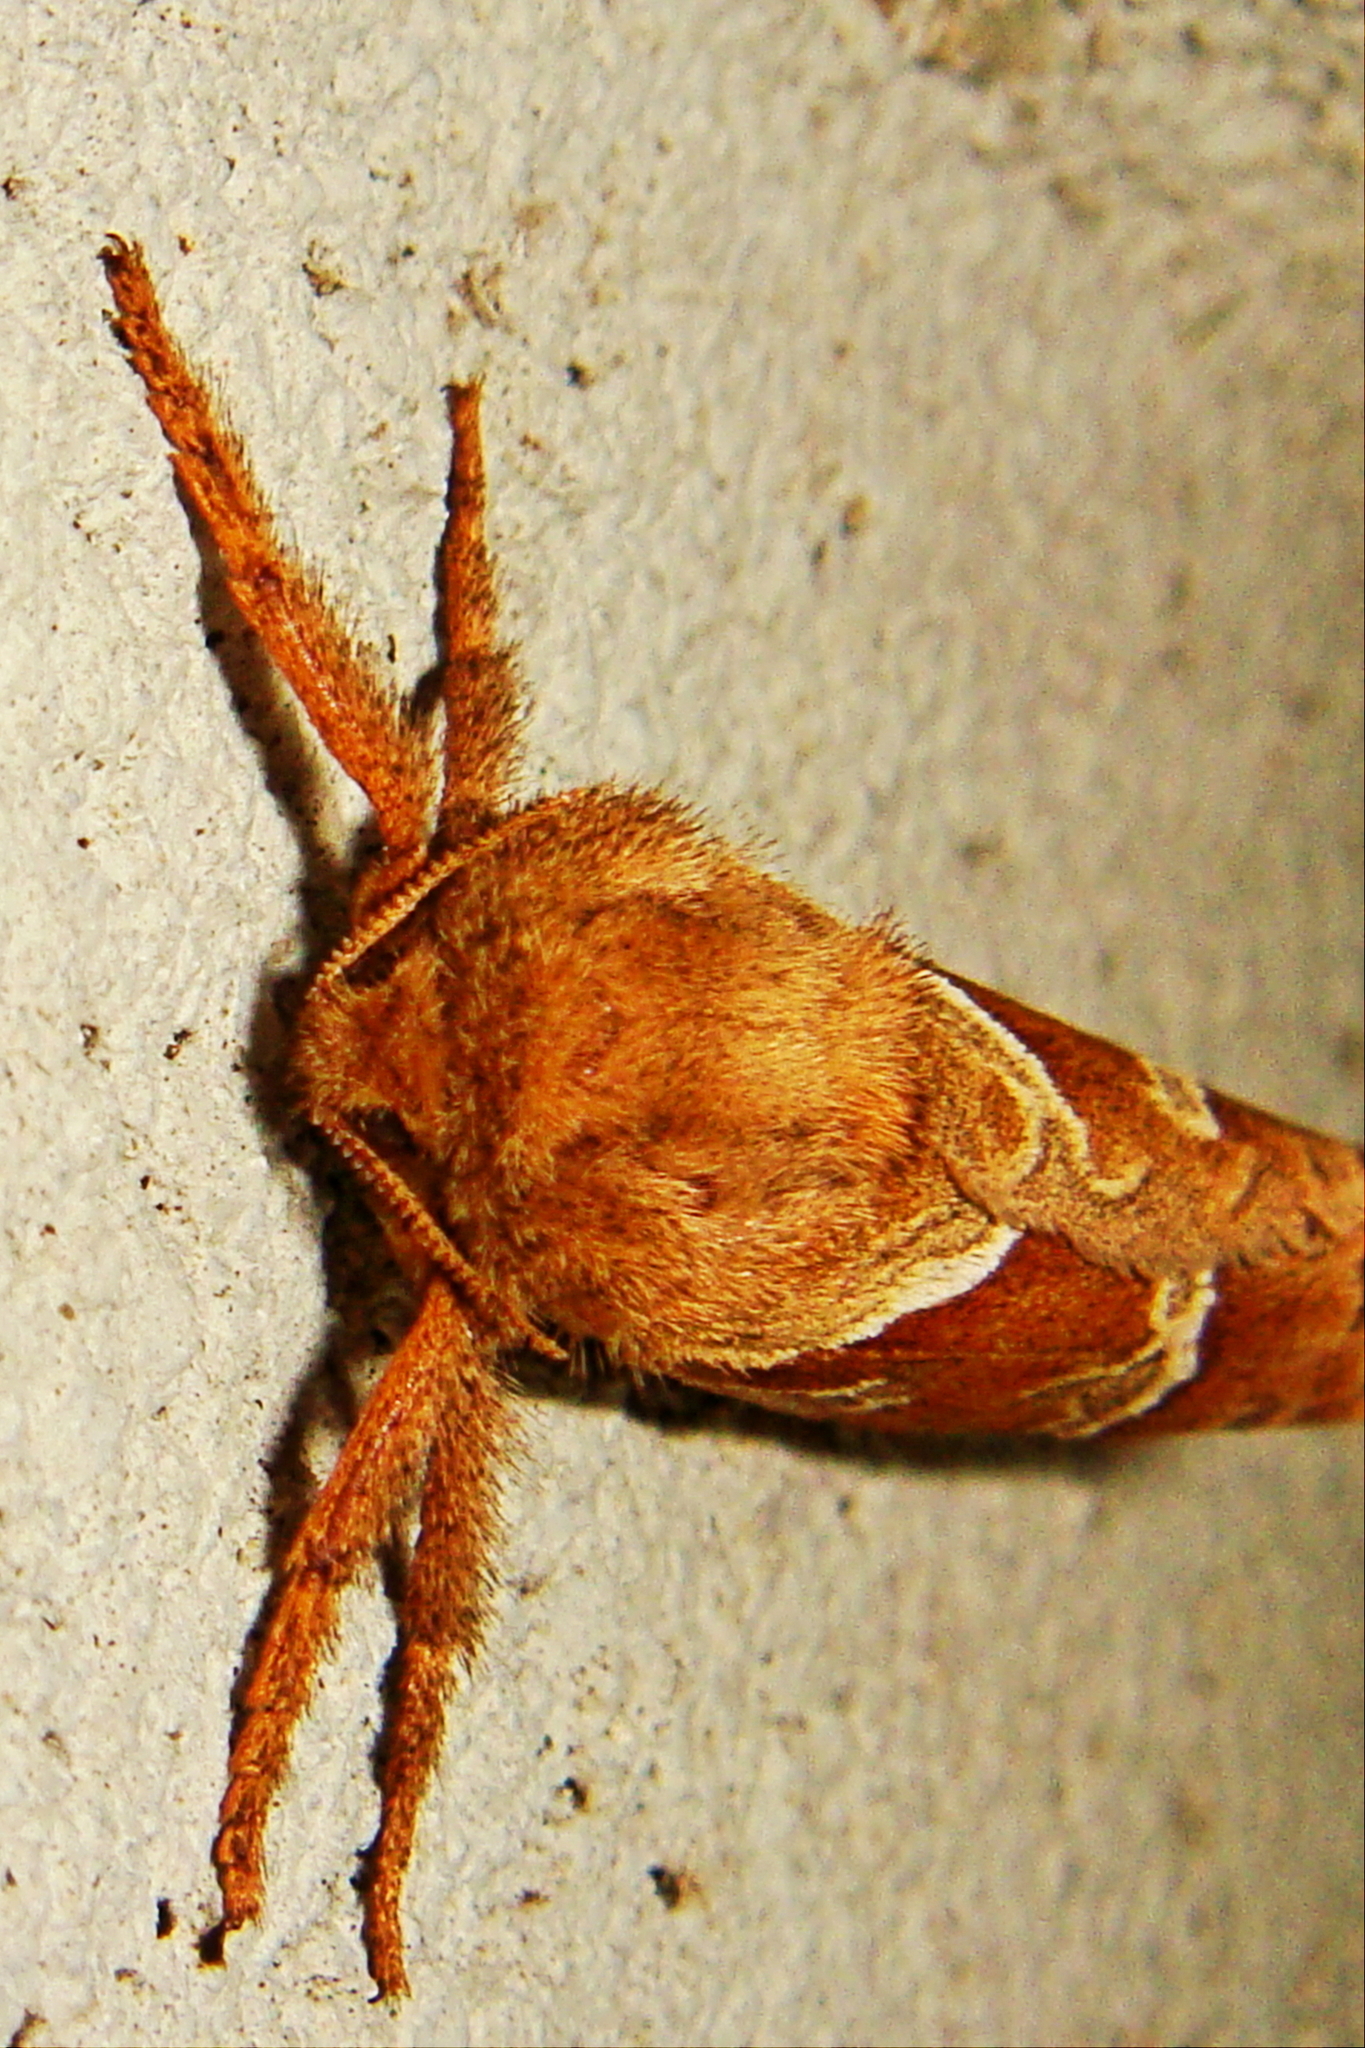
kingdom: Animalia
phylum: Arthropoda
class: Insecta
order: Lepidoptera
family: Hepialidae
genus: Triodia
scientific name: Triodia sylvina
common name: Orange swift
